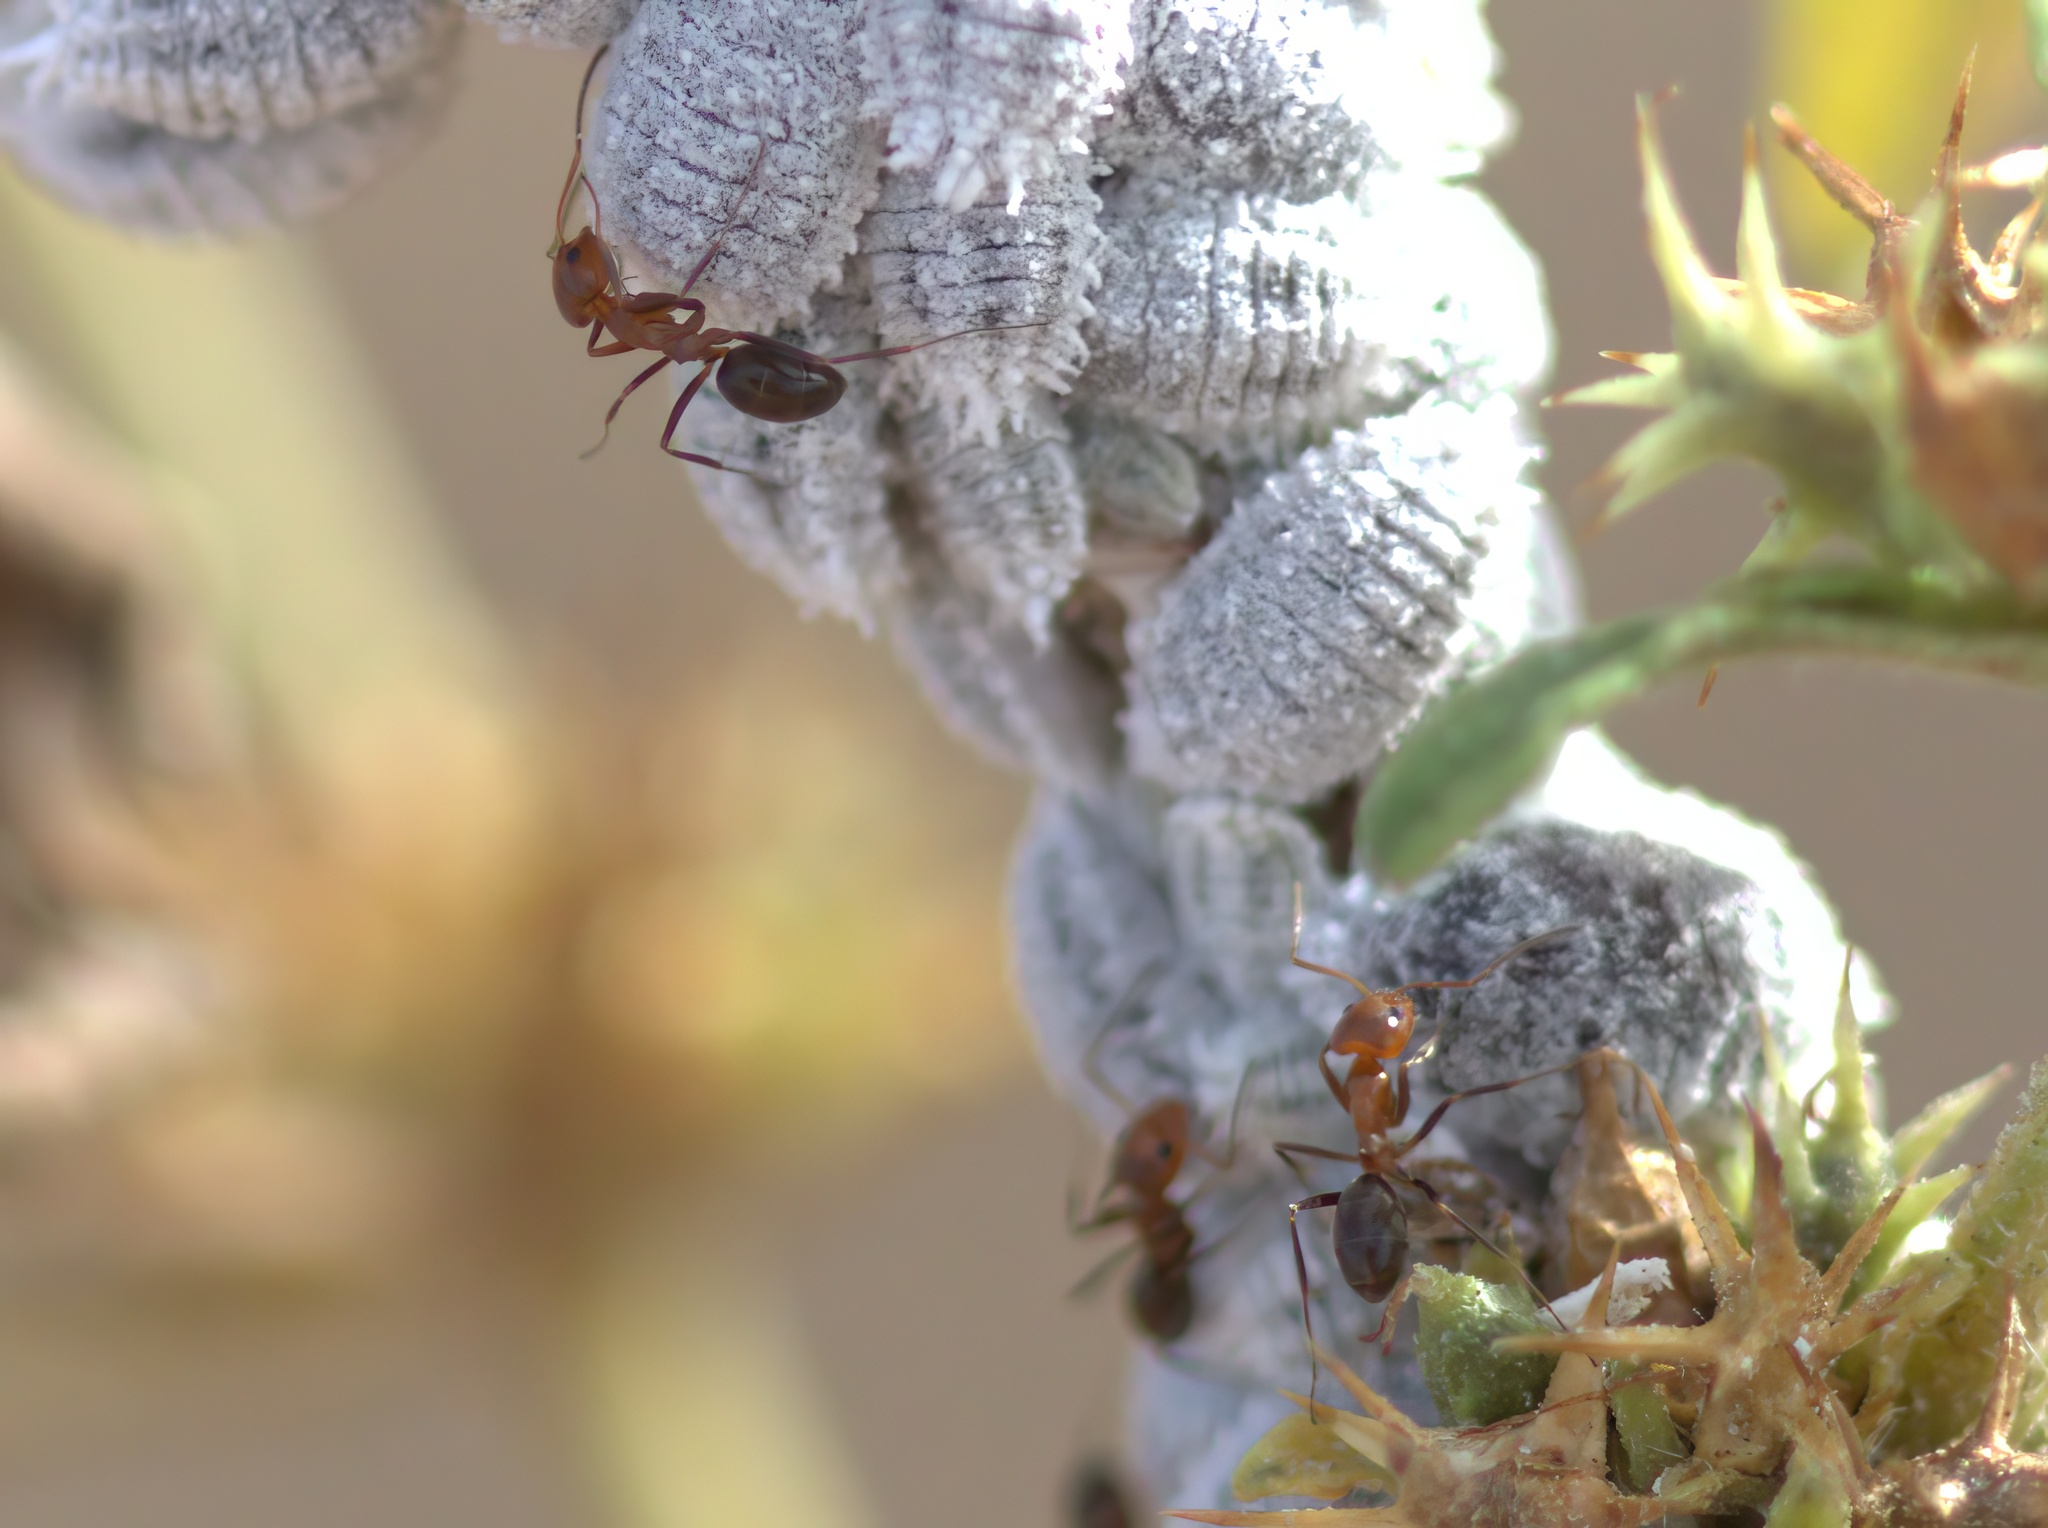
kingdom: Animalia
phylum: Arthropoda
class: Insecta
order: Hymenoptera
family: Formicidae
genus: Dorymyrmex
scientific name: Dorymyrmex bicolor
